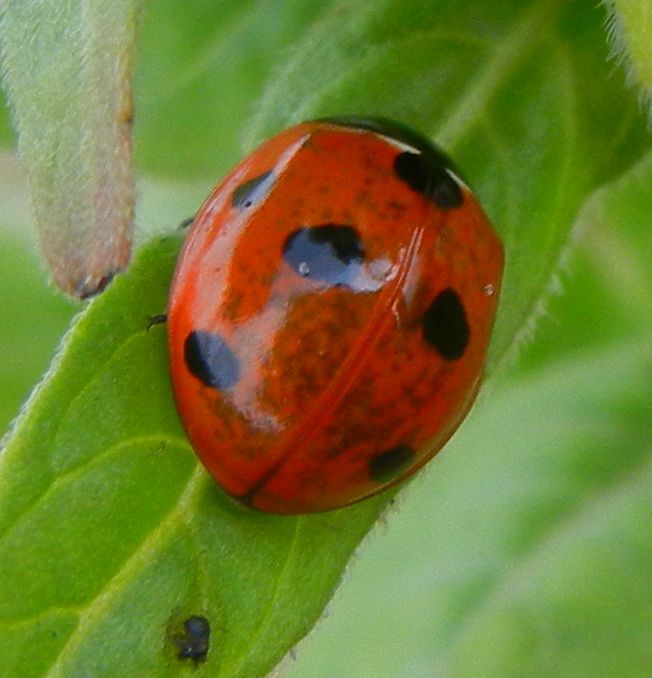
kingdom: Animalia
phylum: Arthropoda
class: Insecta
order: Coleoptera
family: Coccinellidae
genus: Coccinella
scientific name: Coccinella septempunctata
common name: Sevenspotted lady beetle
